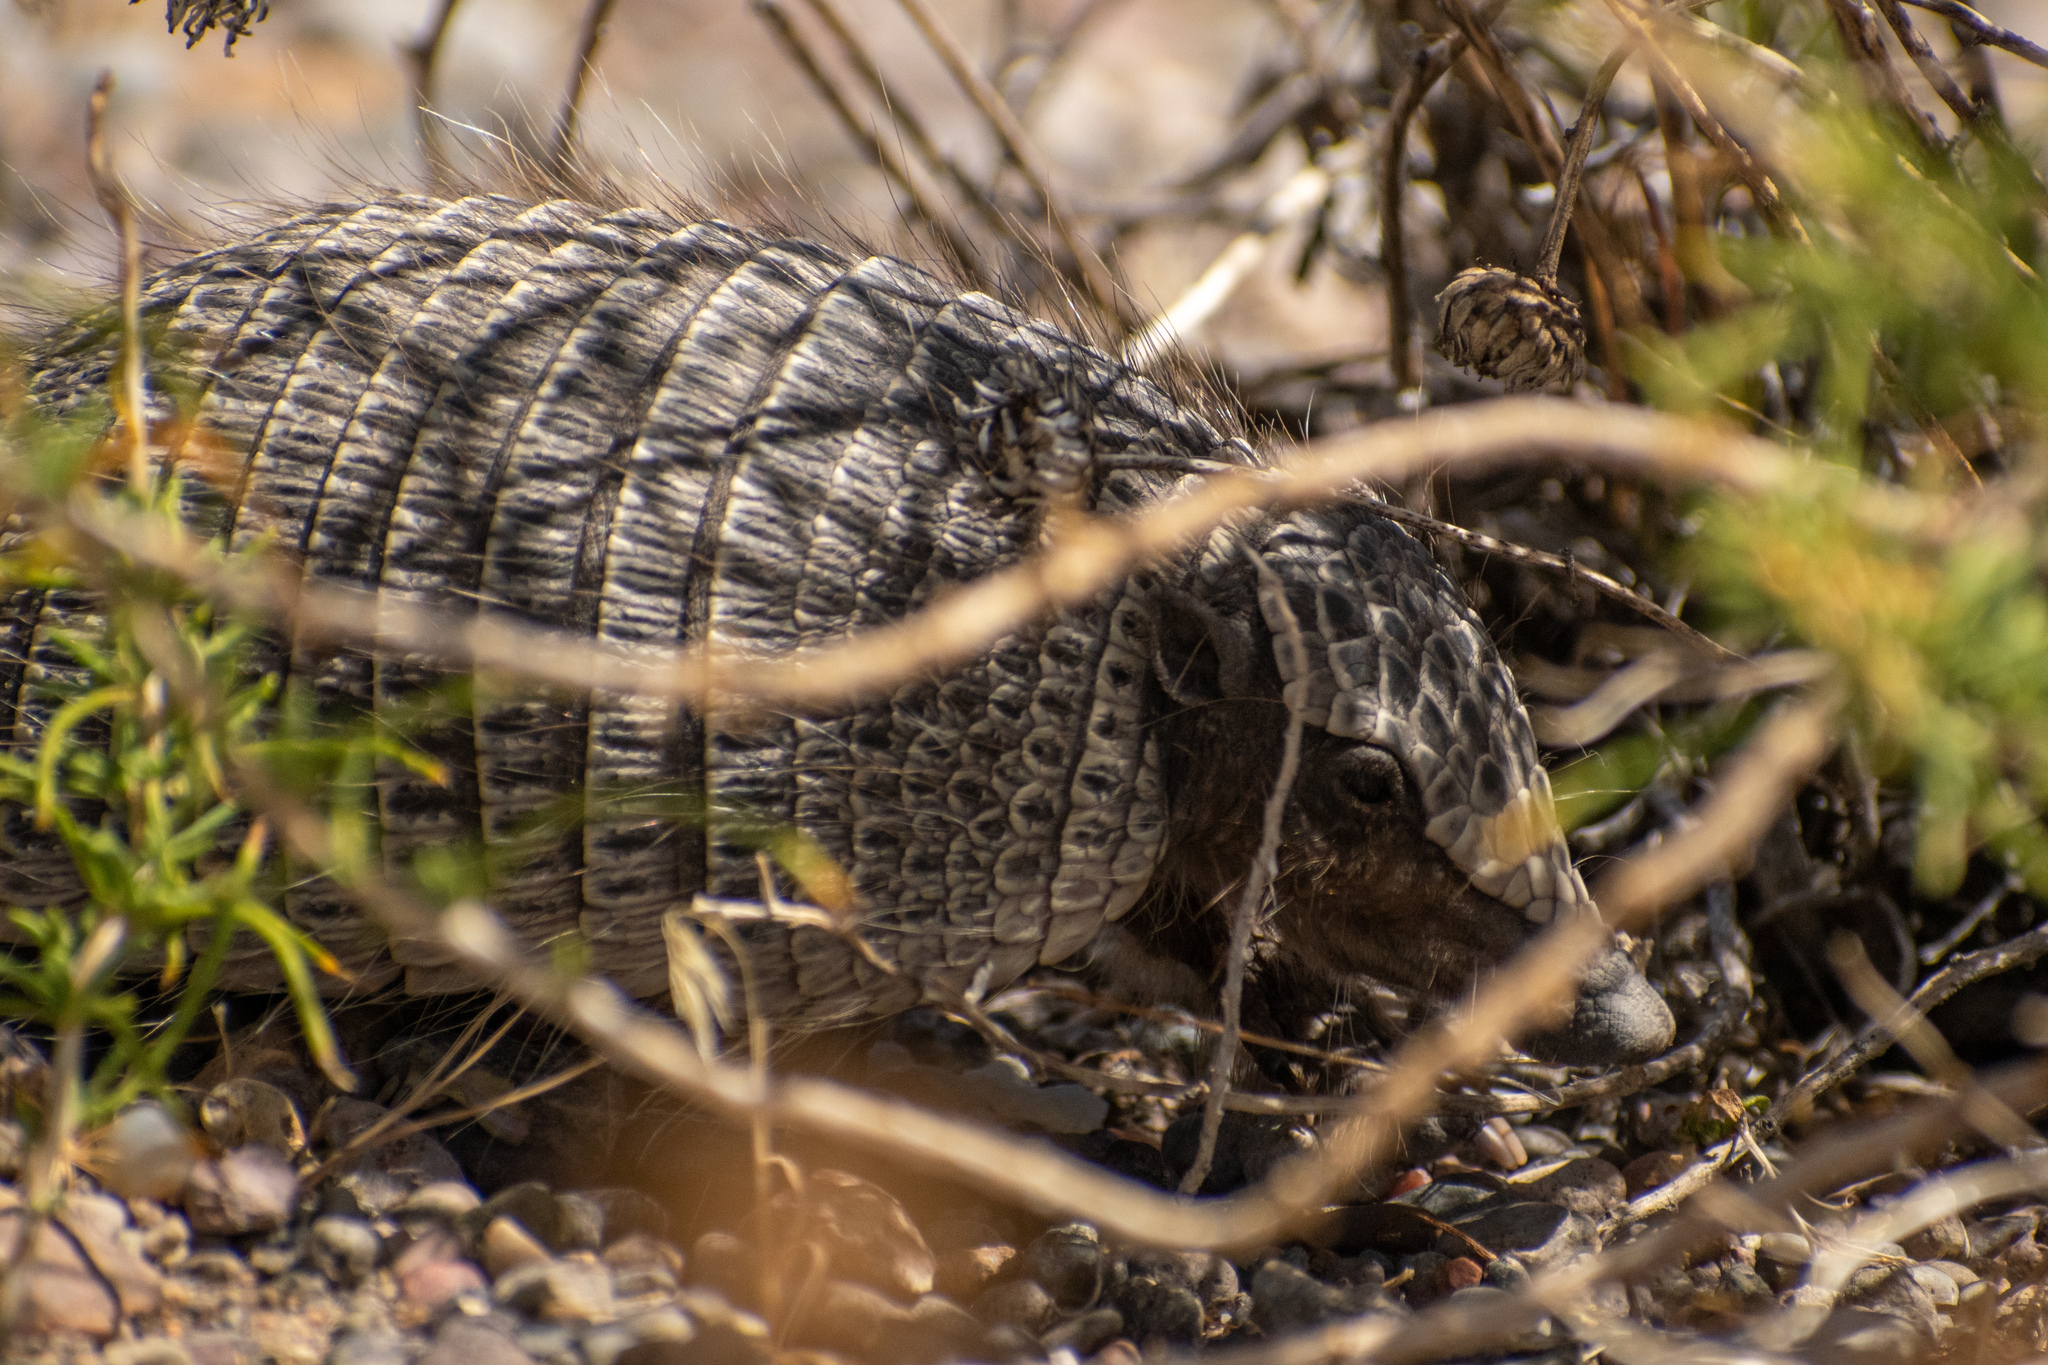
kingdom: Animalia
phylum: Chordata
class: Mammalia
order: Cingulata
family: Dasypodidae
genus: Zaedyus
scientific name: Zaedyus pichiy
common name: Pichi
